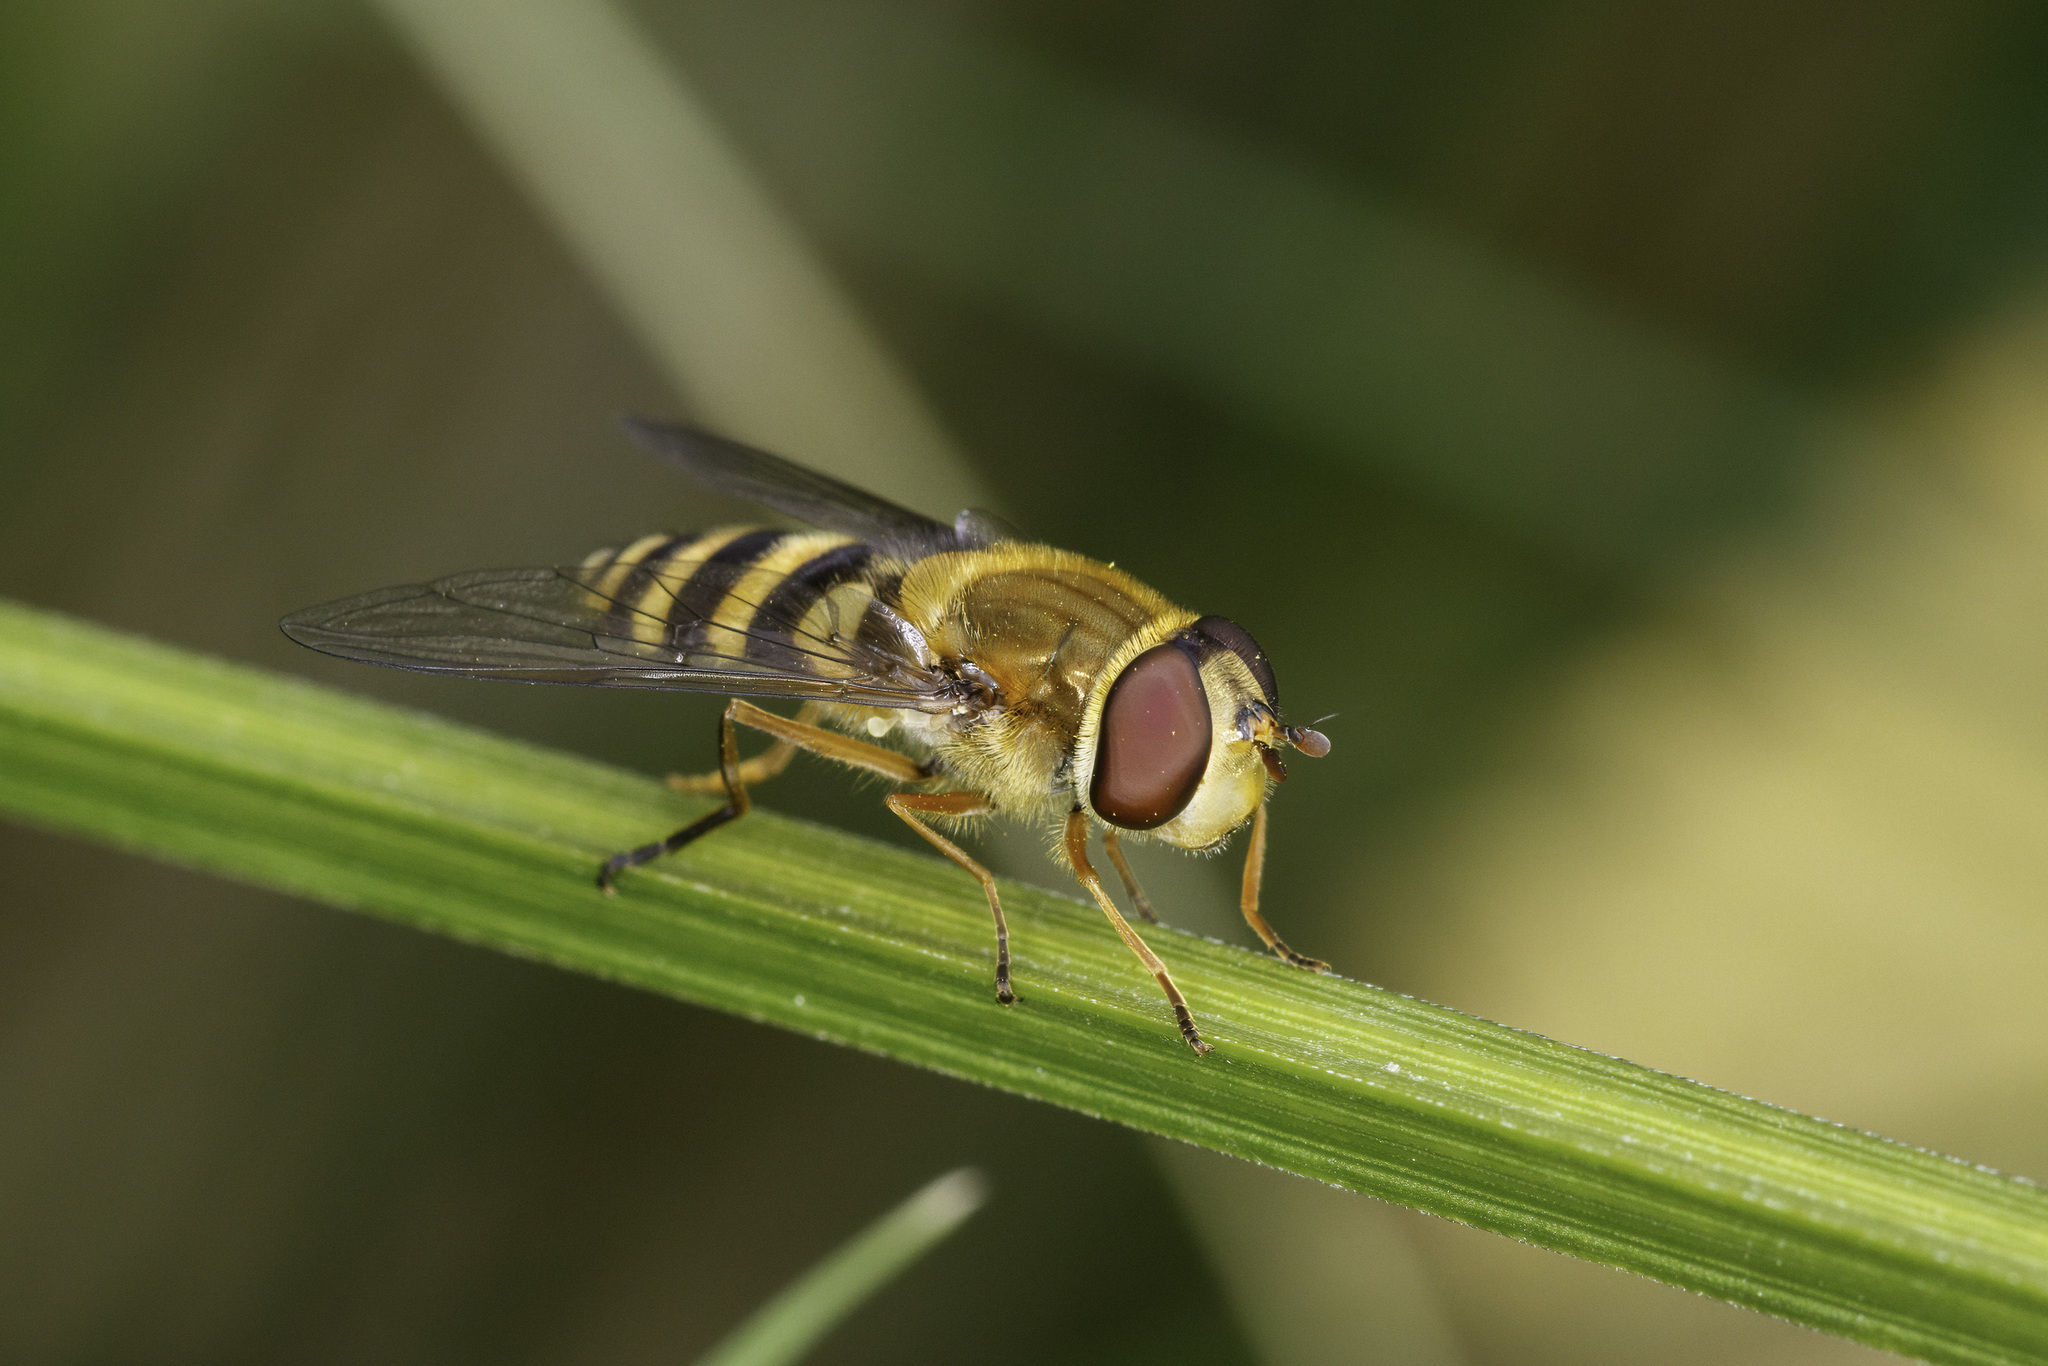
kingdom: Animalia
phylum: Arthropoda
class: Insecta
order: Diptera
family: Syrphidae
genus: Syrphus
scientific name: Syrphus ribesii
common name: Common flower fly
